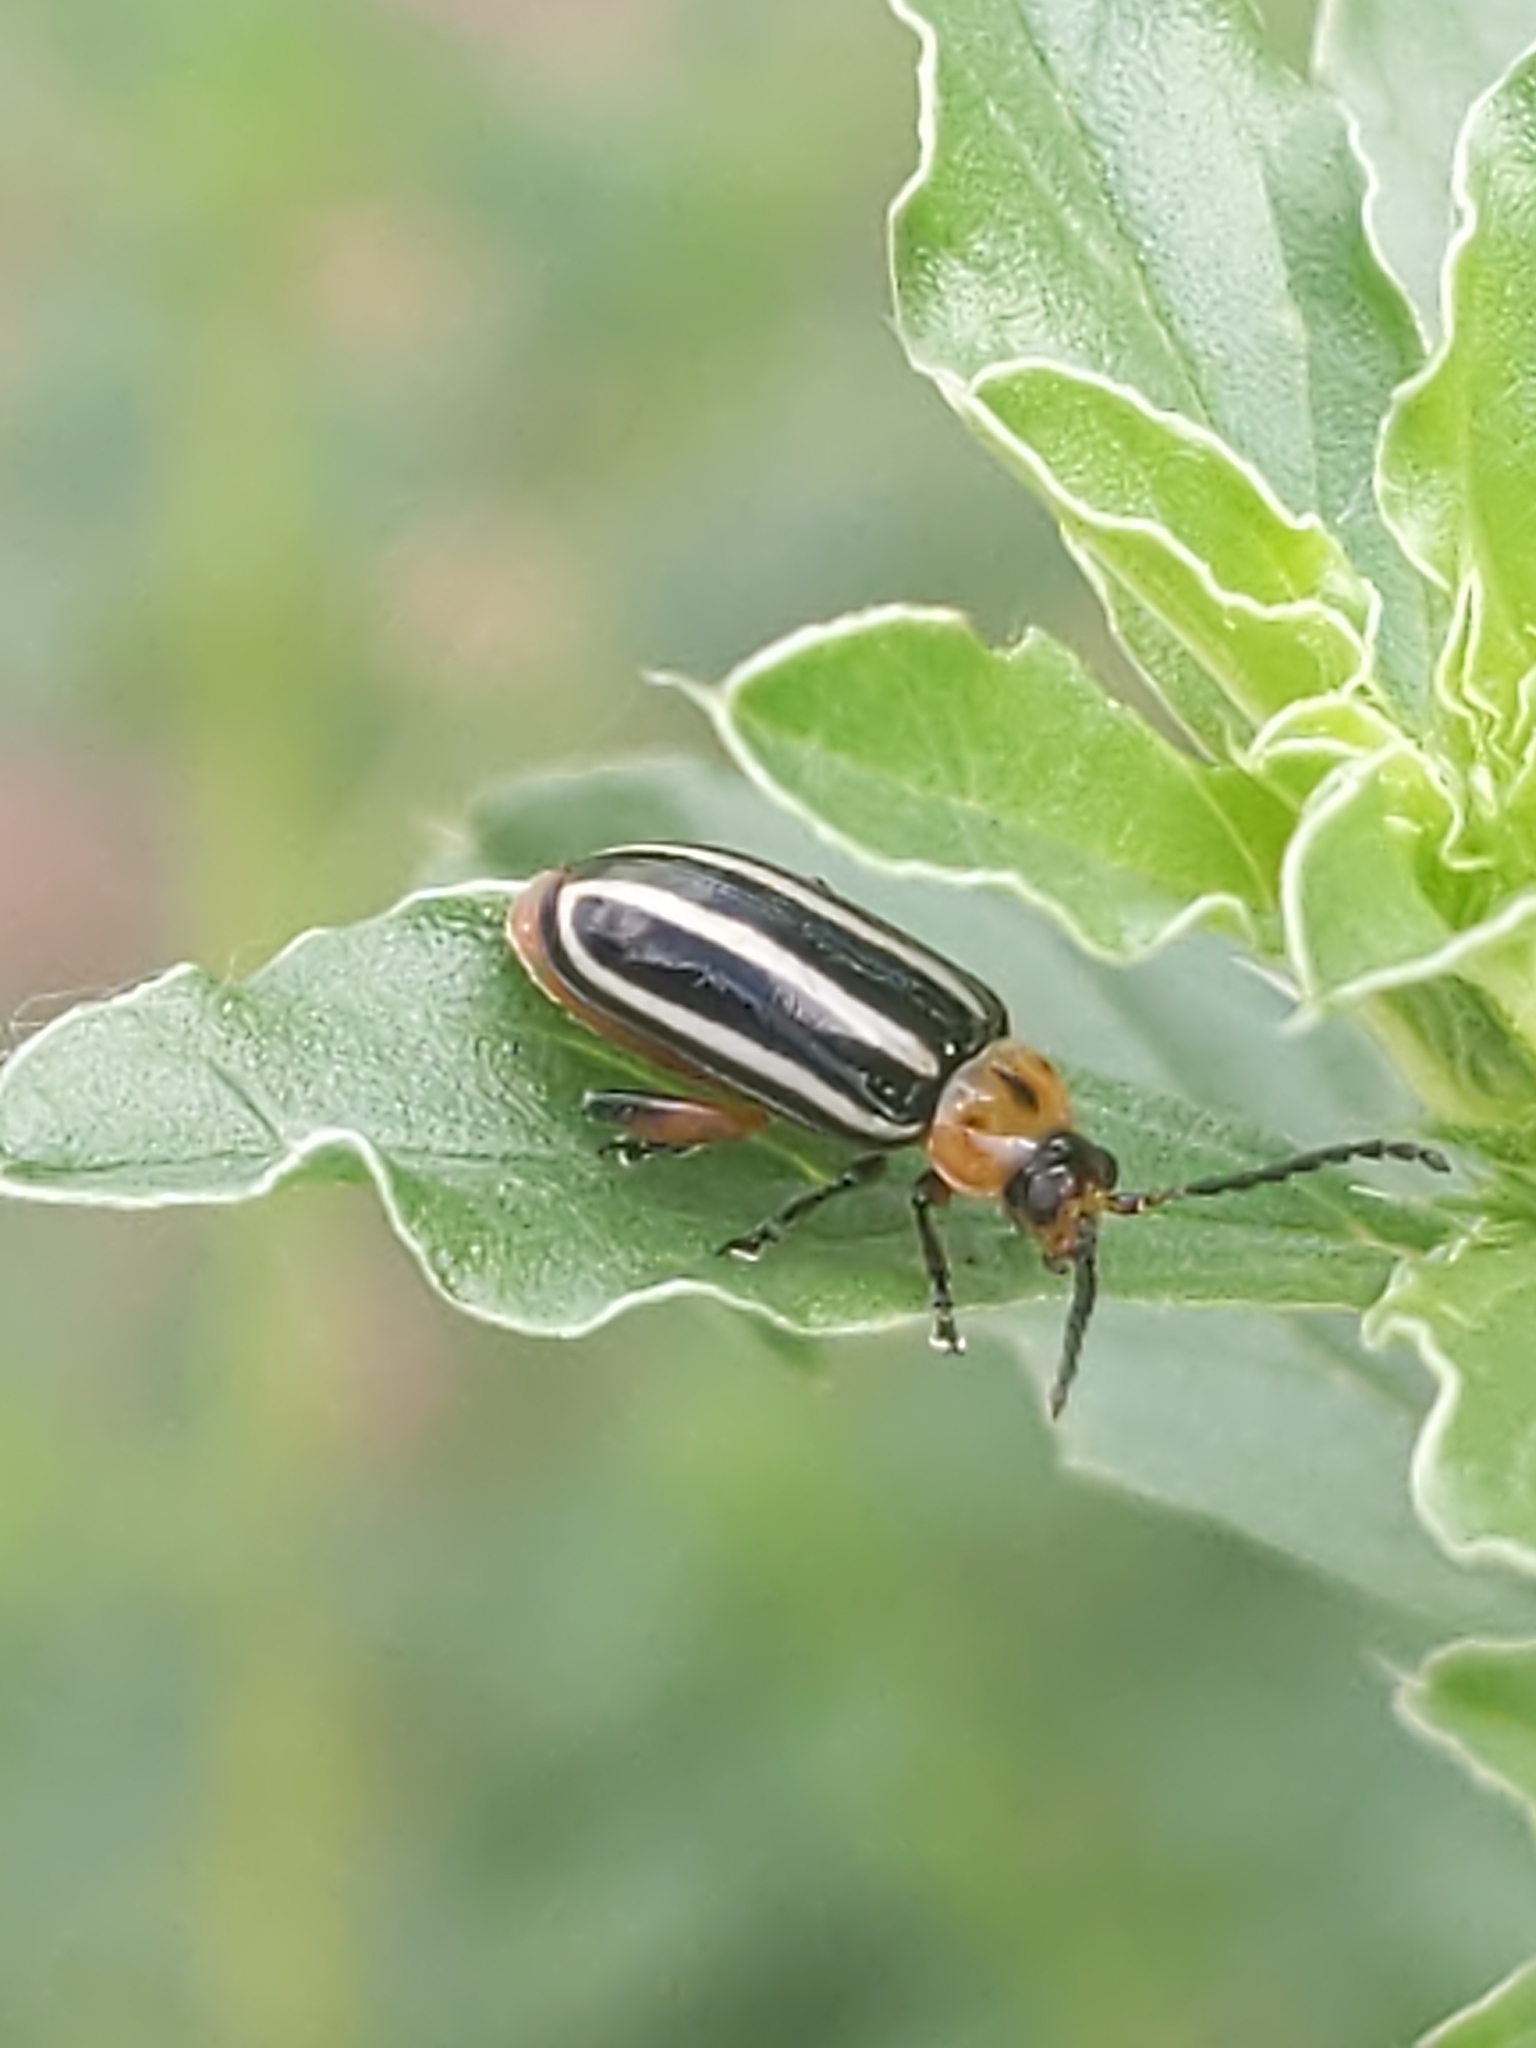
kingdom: Animalia
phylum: Arthropoda
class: Insecta
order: Coleoptera
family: Chrysomelidae
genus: Disonycha
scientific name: Disonycha glabrata
